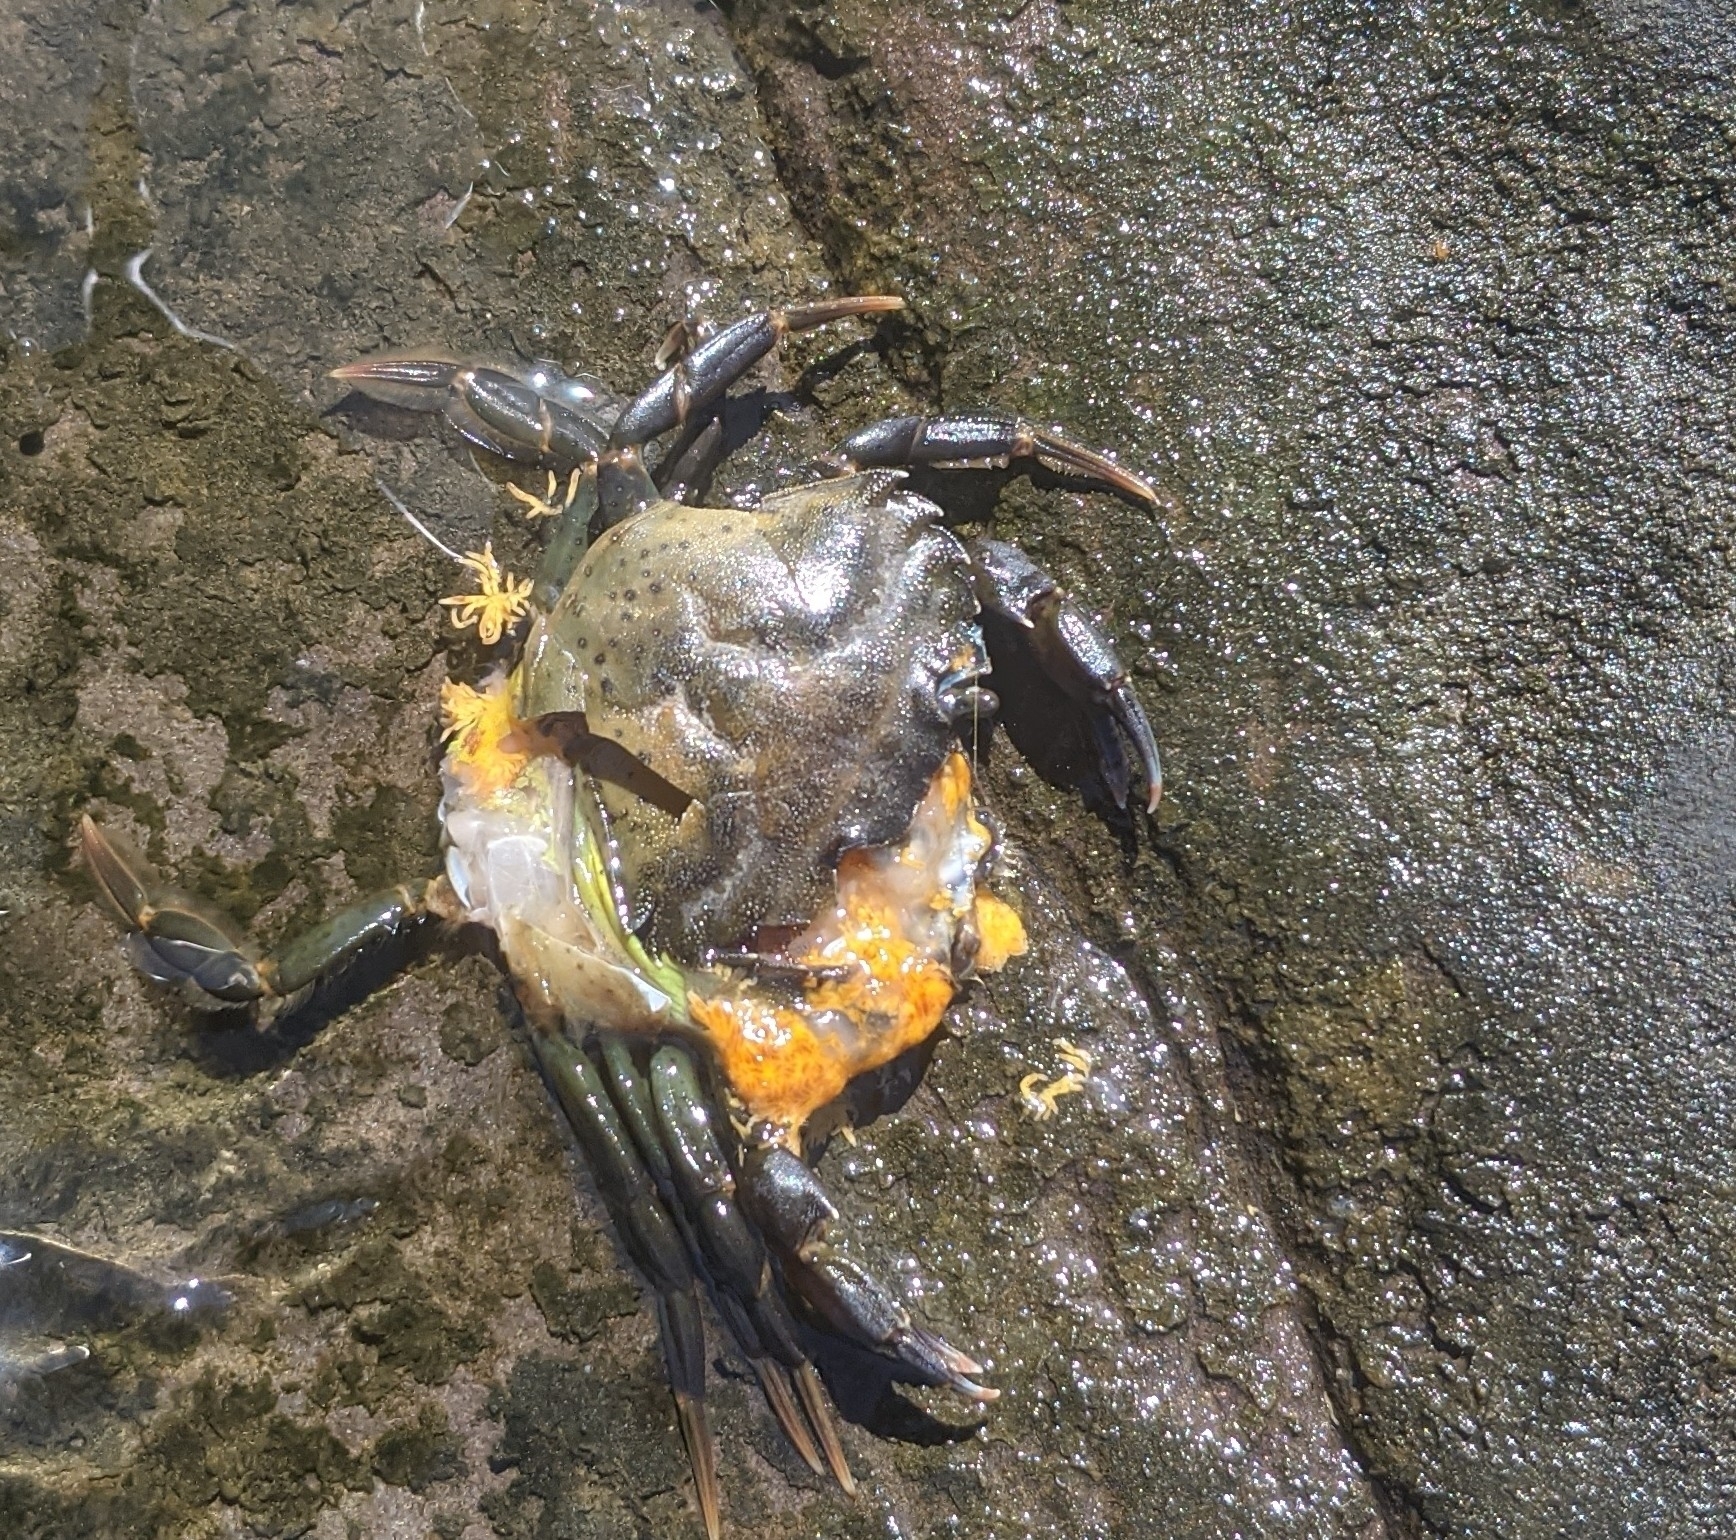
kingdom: Animalia
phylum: Arthropoda
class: Malacostraca
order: Decapoda
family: Carcinidae
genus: Carcinus
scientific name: Carcinus maenas
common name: European green crab
